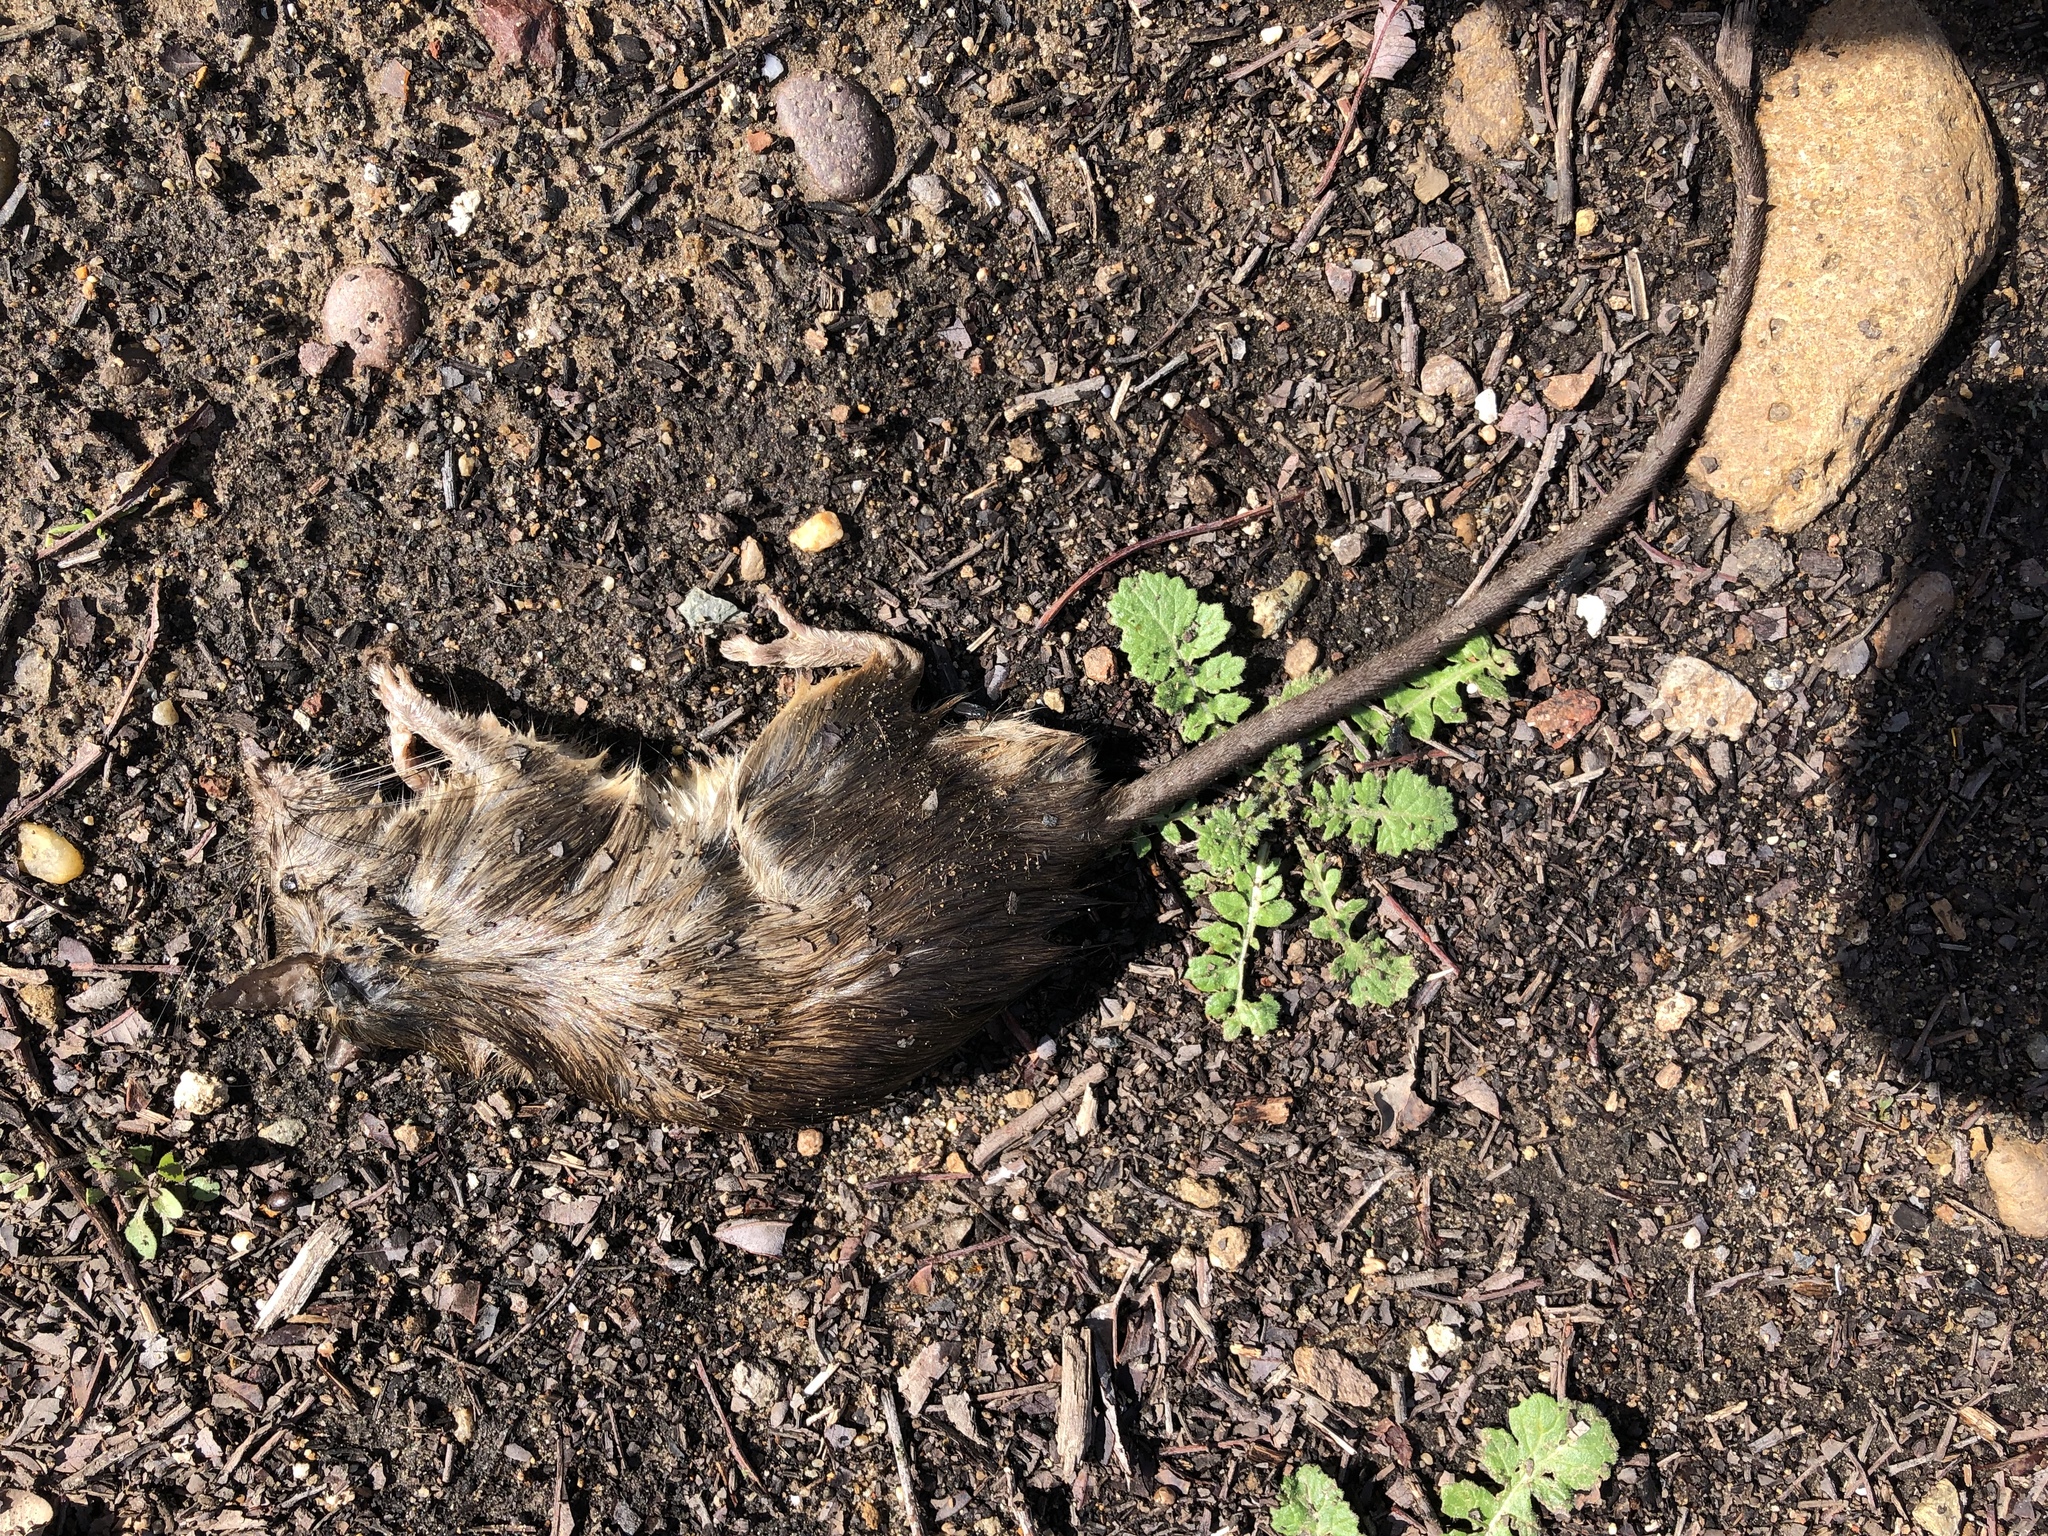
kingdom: Animalia
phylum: Chordata
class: Mammalia
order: Rodentia
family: Muridae
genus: Rattus
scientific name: Rattus rattus
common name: Black rat
